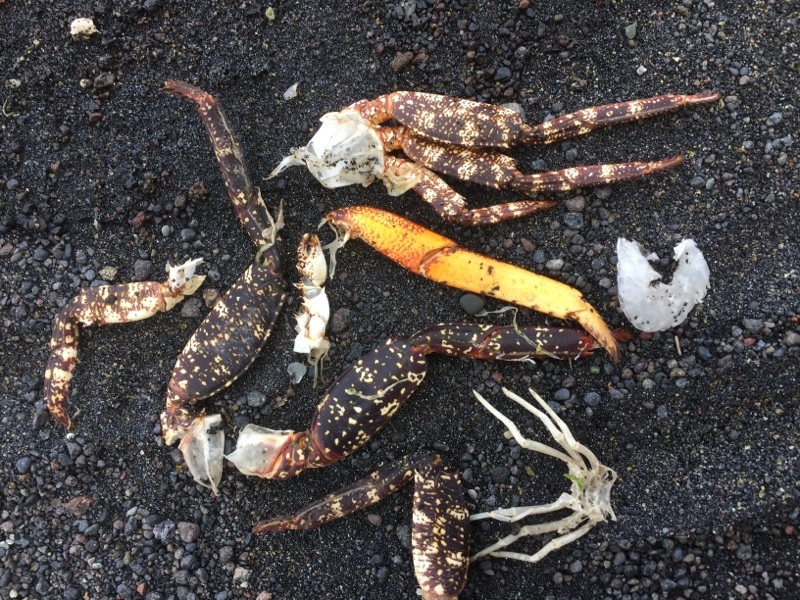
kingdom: Animalia
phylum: Arthropoda
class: Malacostraca
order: Decapoda
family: Grapsidae
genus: Grapsus
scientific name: Grapsus adscensionis
